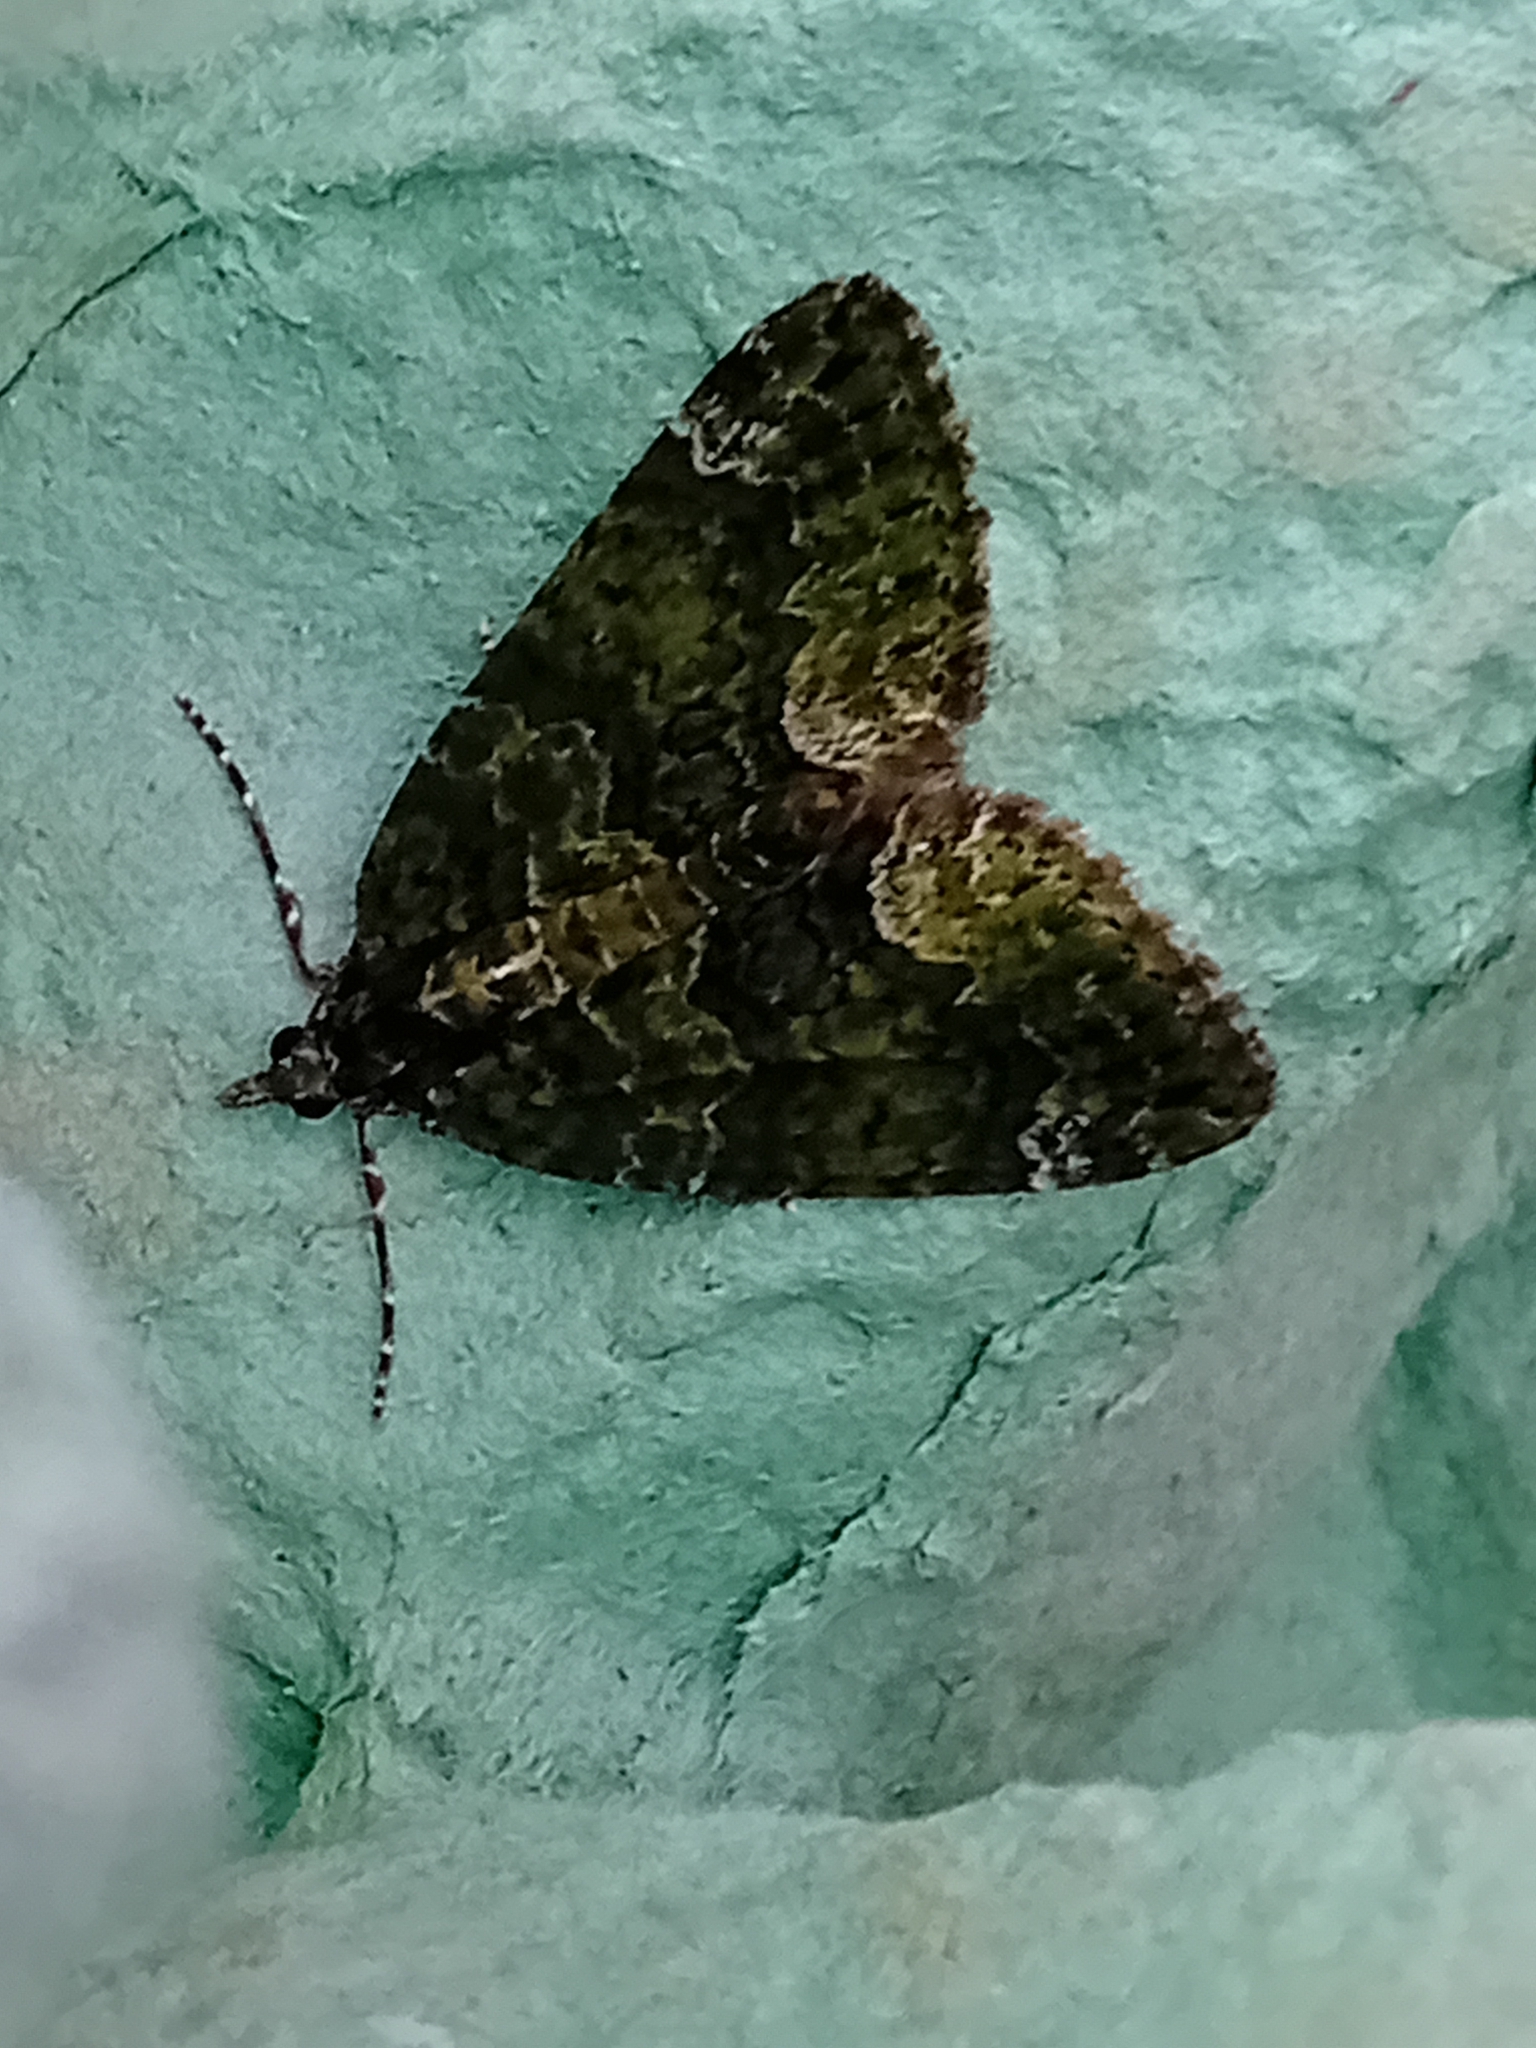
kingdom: Animalia
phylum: Arthropoda
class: Insecta
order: Lepidoptera
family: Geometridae
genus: Chloroclysta
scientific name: Chloroclysta siterata
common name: Red-green carpet
